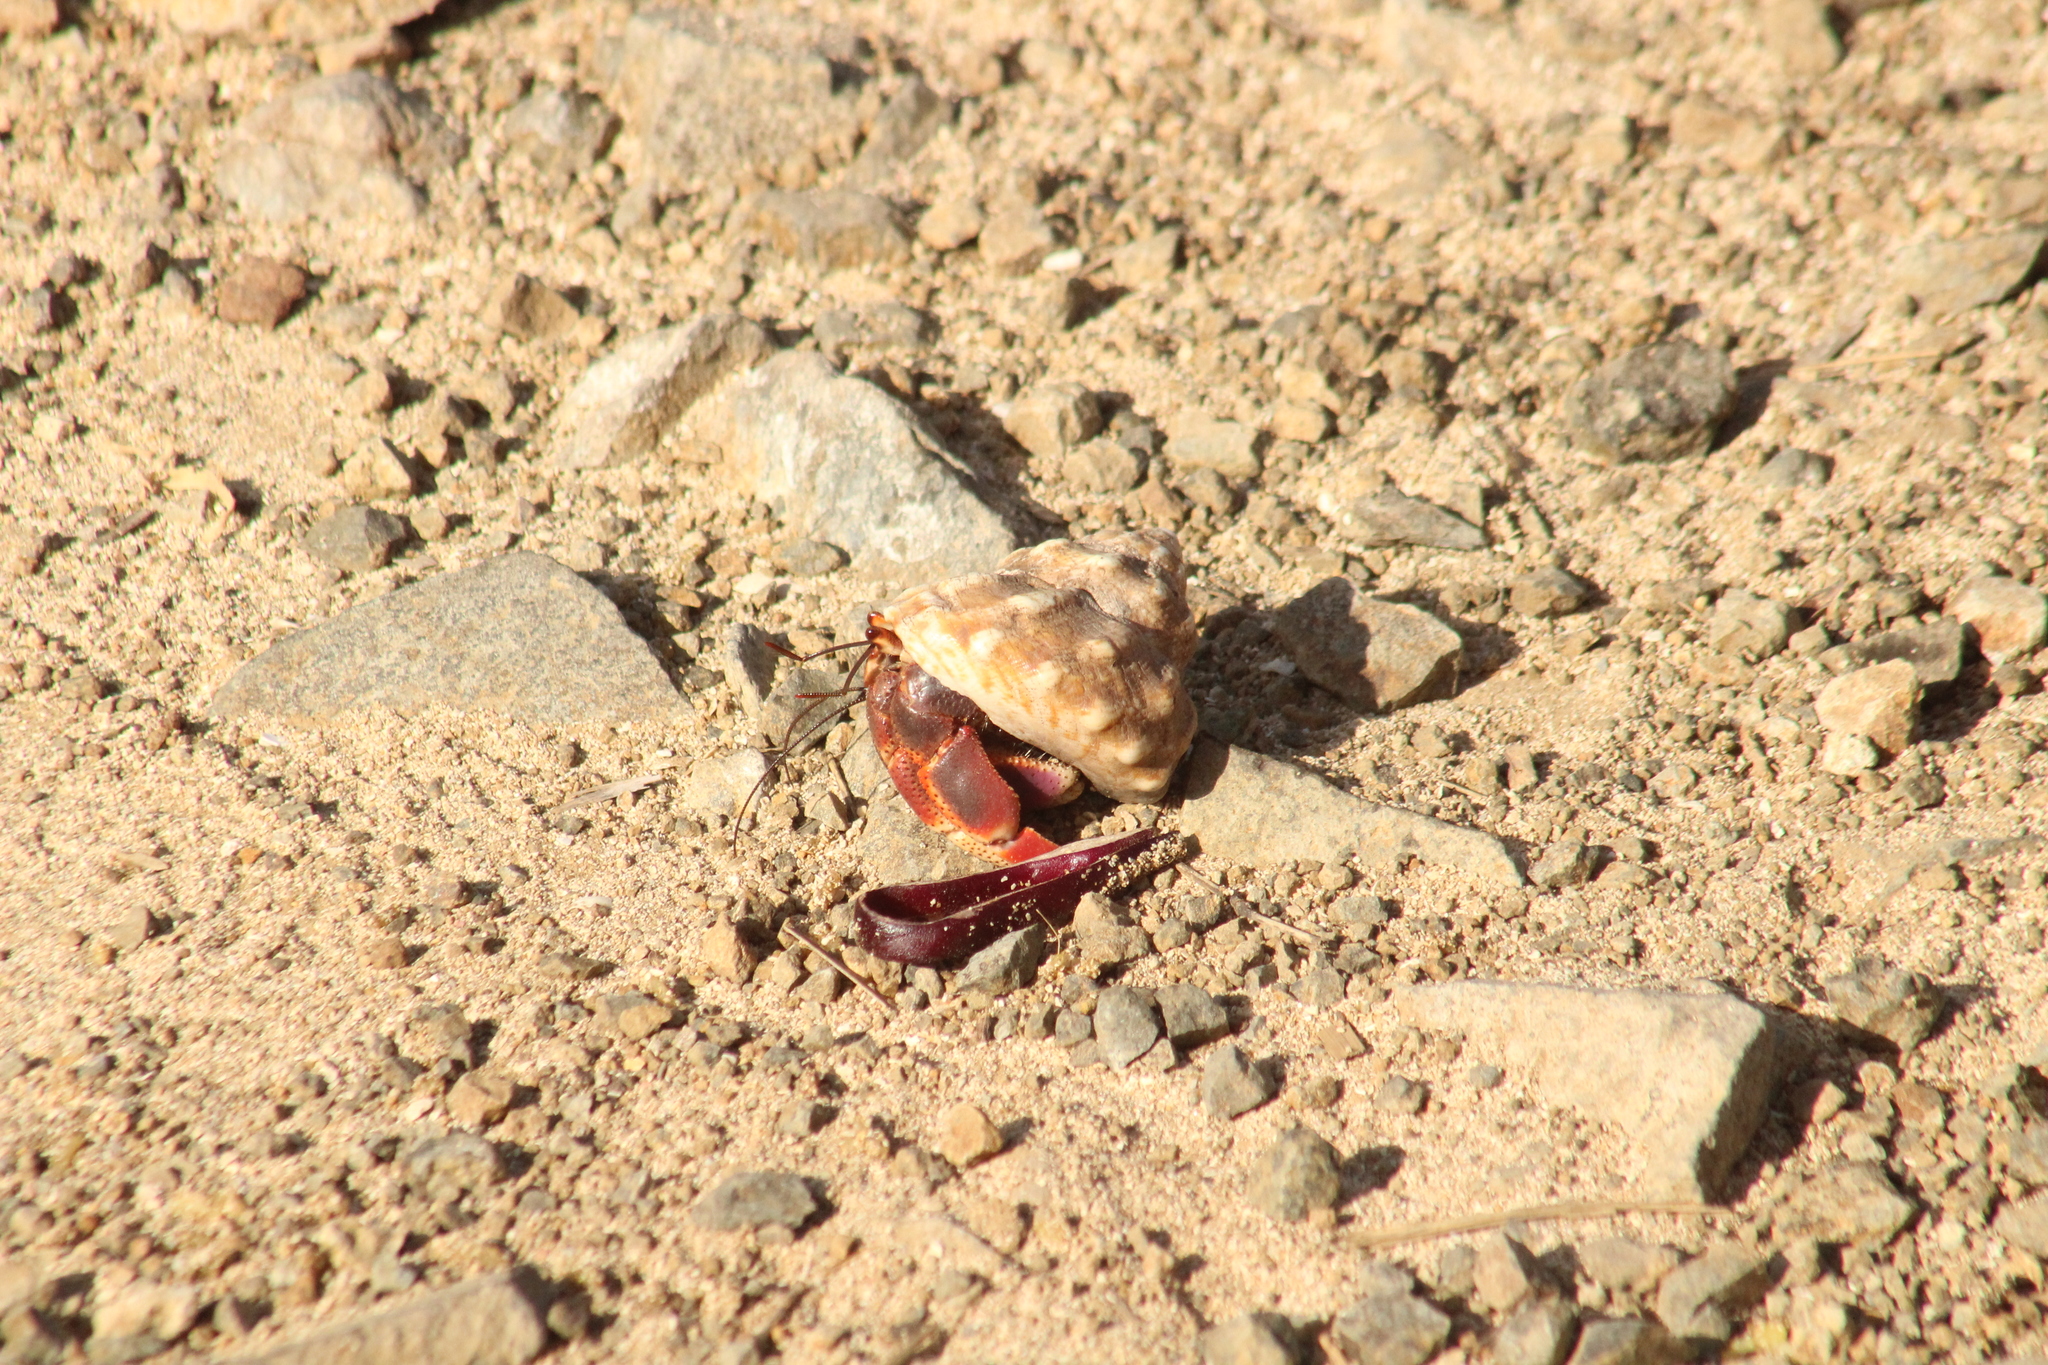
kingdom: Animalia
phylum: Arthropoda
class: Malacostraca
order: Decapoda
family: Coenobitidae
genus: Coenobita
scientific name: Coenobita clypeatus
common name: Caribbean hermit crab
